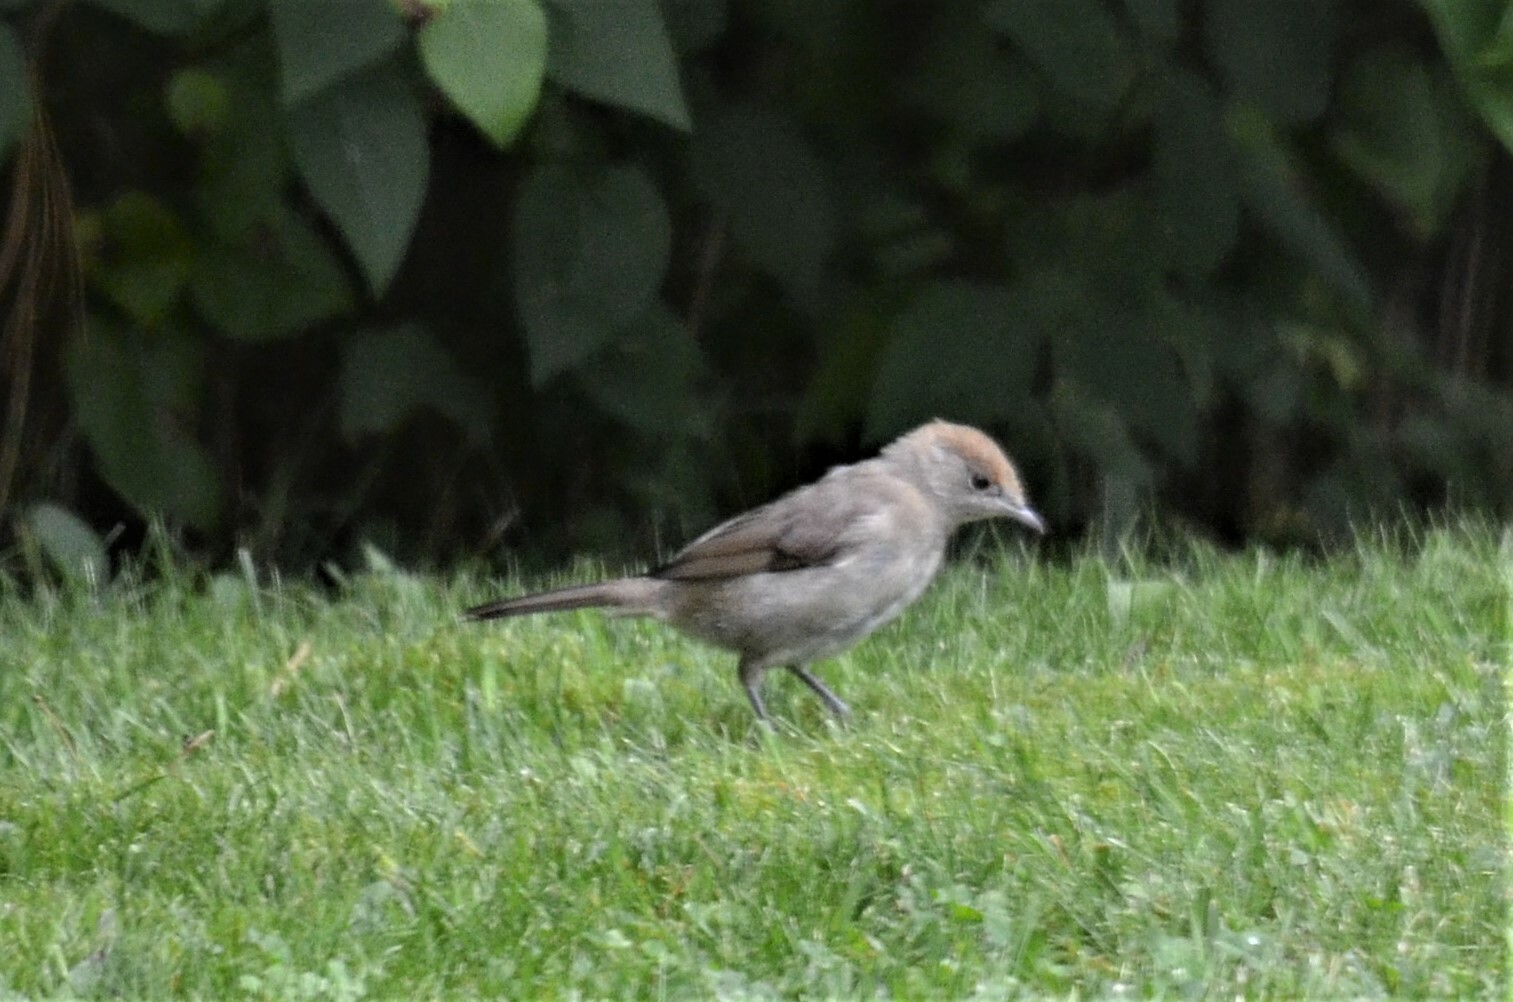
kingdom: Animalia
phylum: Chordata
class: Aves
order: Passeriformes
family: Sylviidae
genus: Sylvia
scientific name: Sylvia atricapilla
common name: Eurasian blackcap
